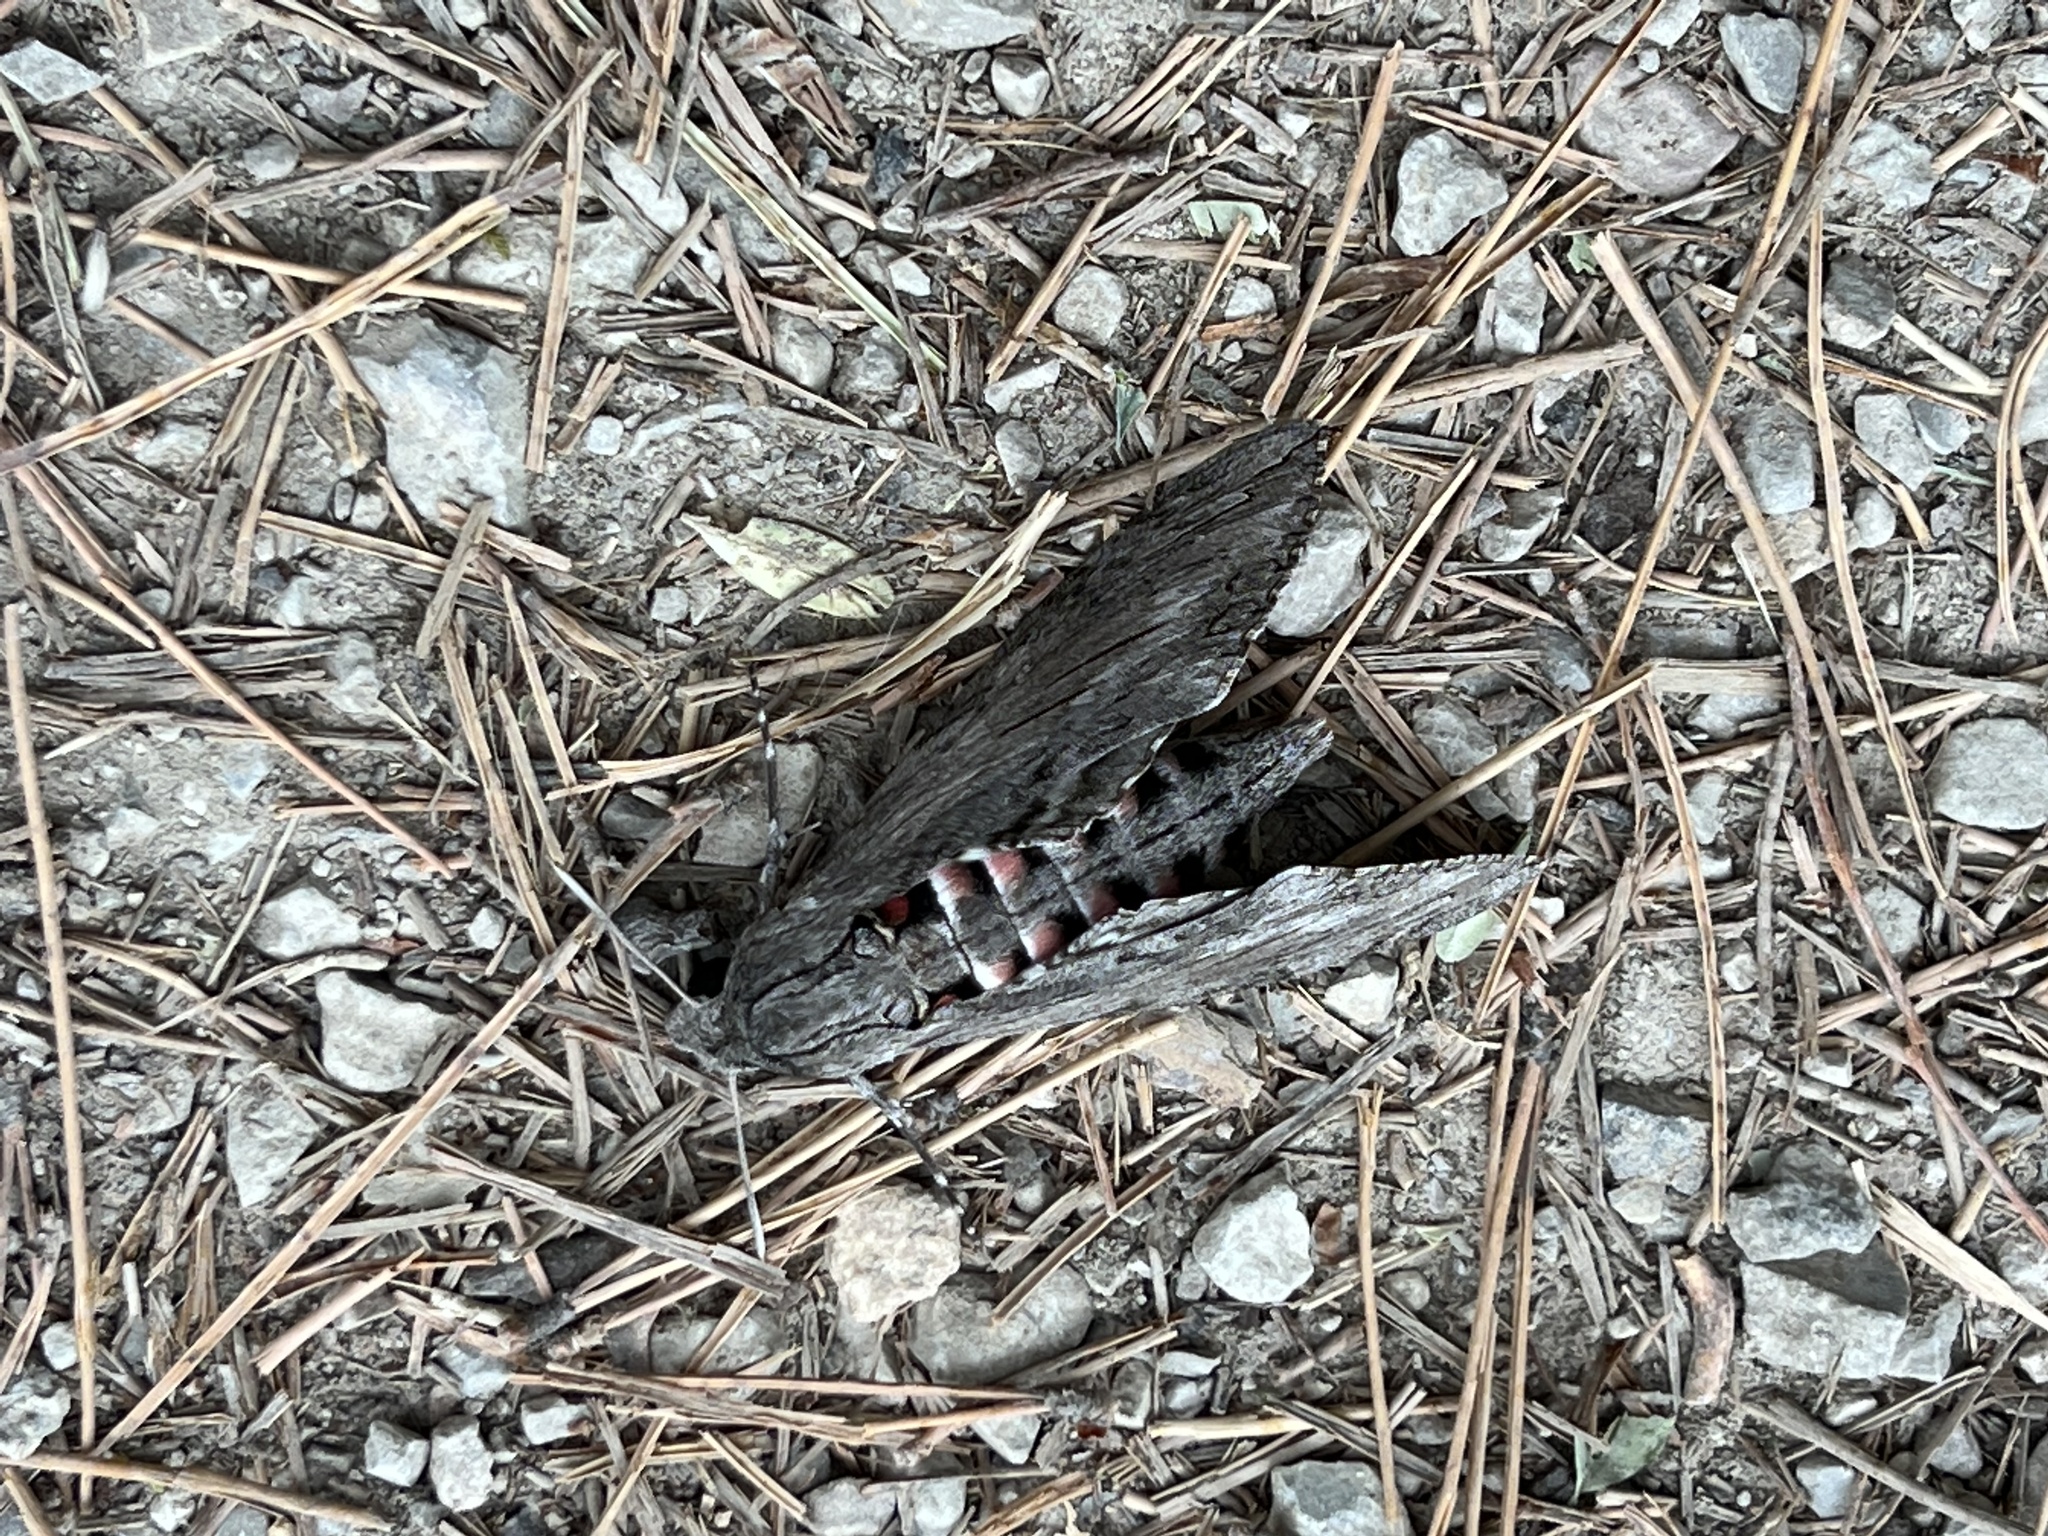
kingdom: Animalia
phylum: Arthropoda
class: Insecta
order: Lepidoptera
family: Sphingidae
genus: Agrius
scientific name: Agrius convolvuli
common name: Convolvulus hawkmoth
